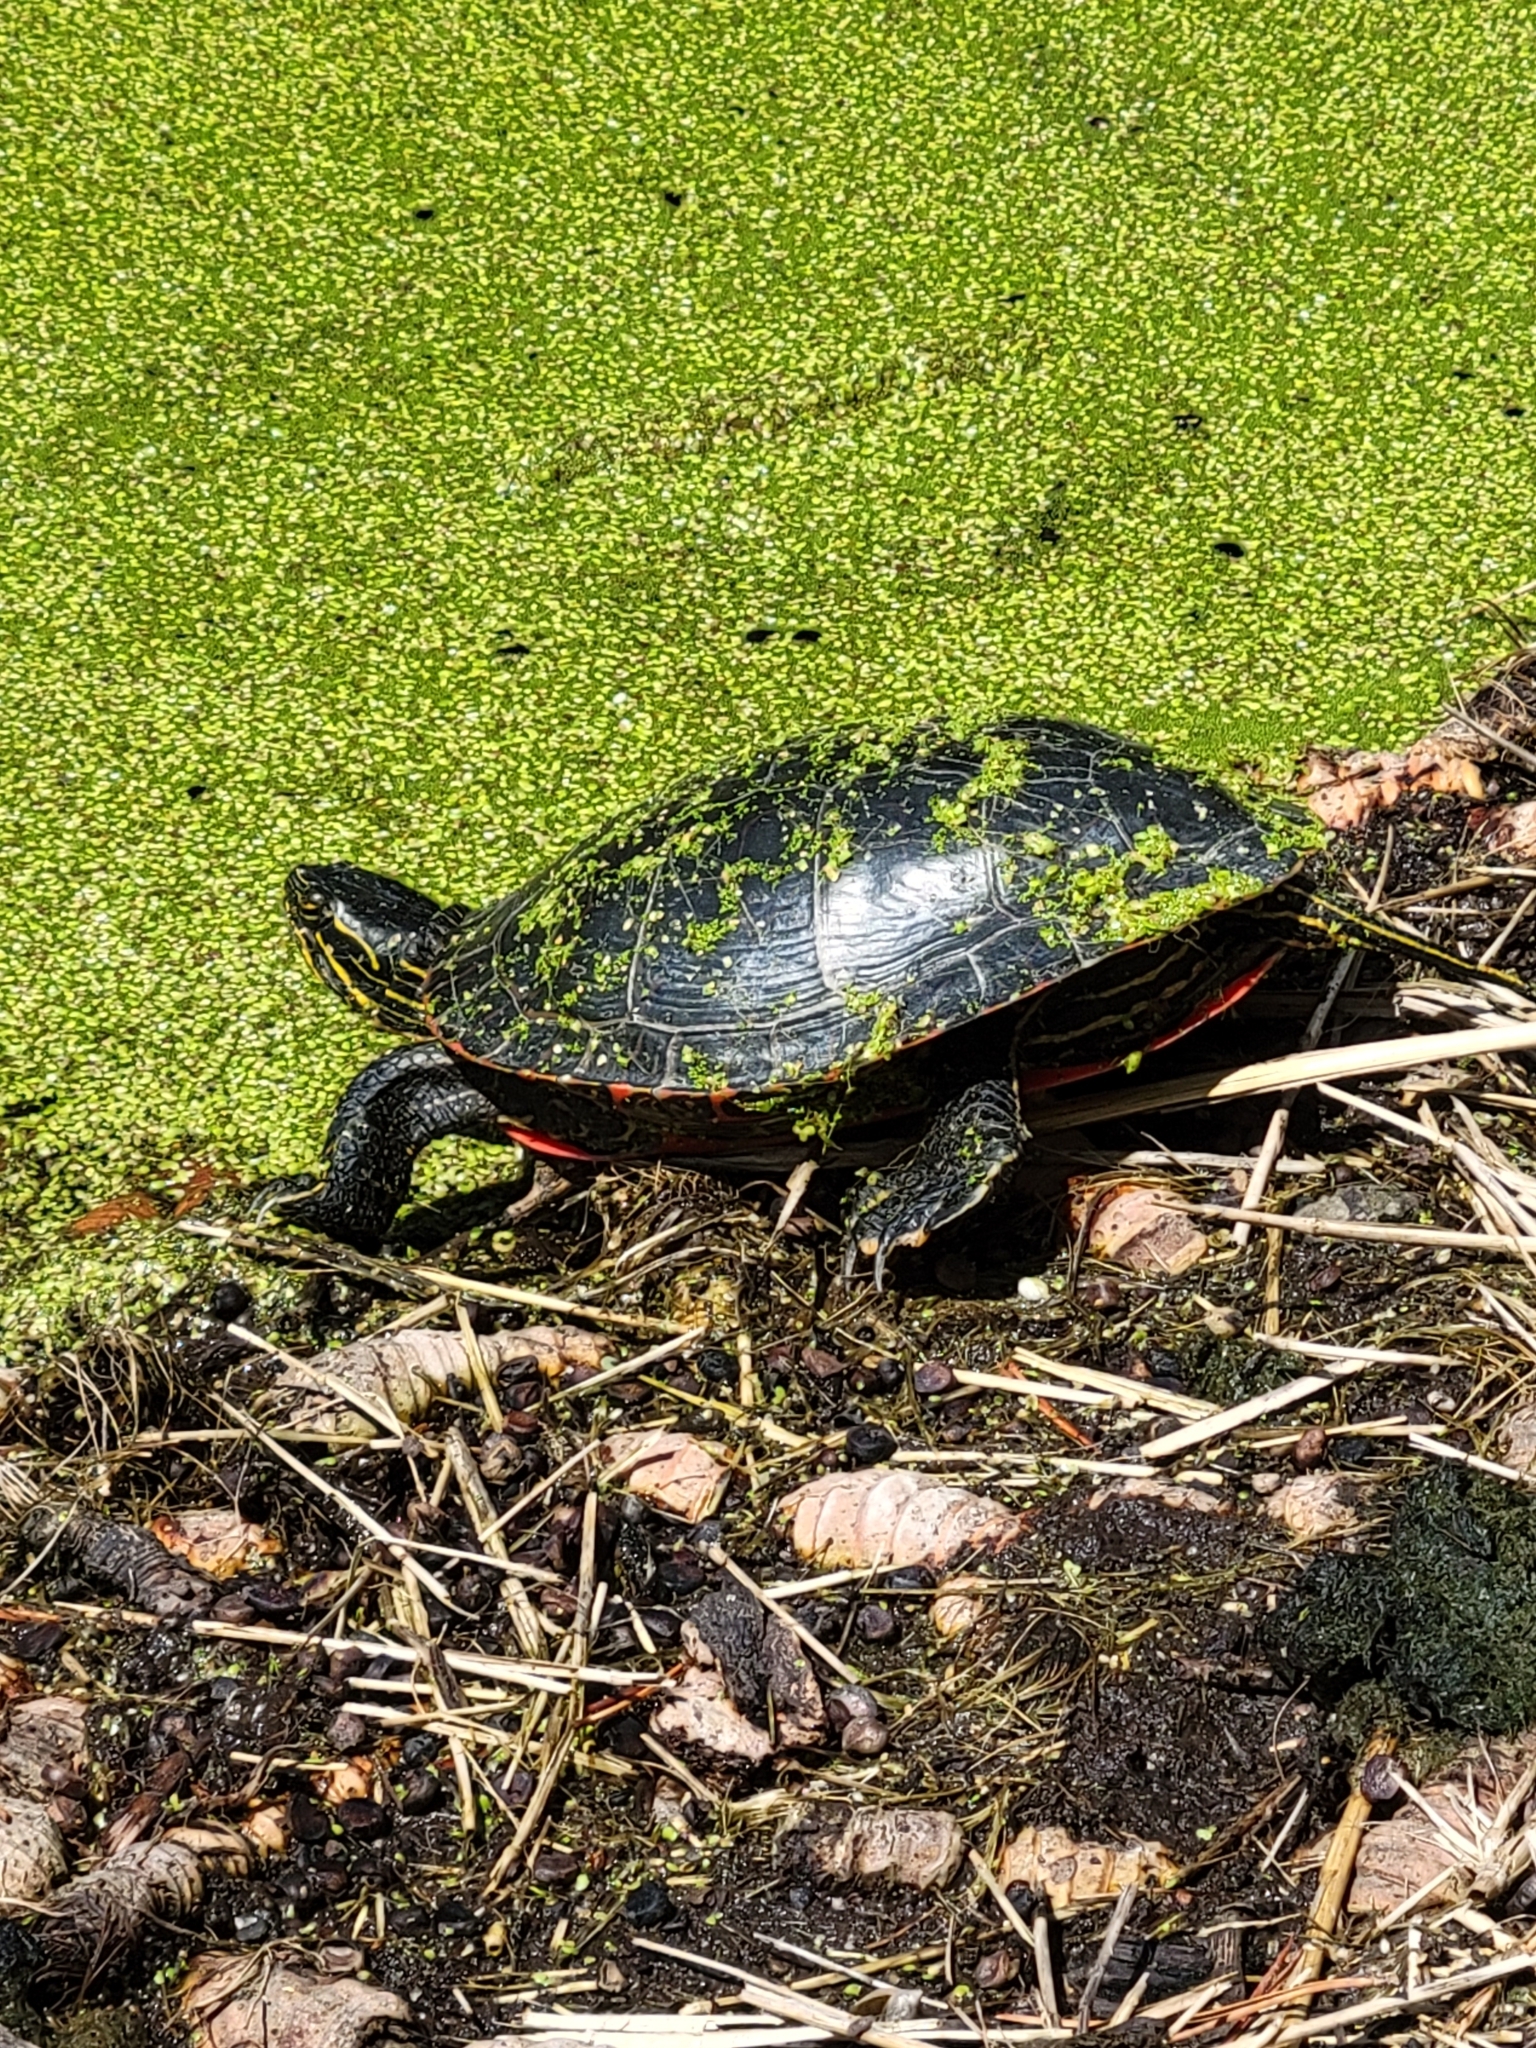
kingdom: Animalia
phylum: Chordata
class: Testudines
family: Emydidae
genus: Chrysemys
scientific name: Chrysemys picta
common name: Painted turtle
